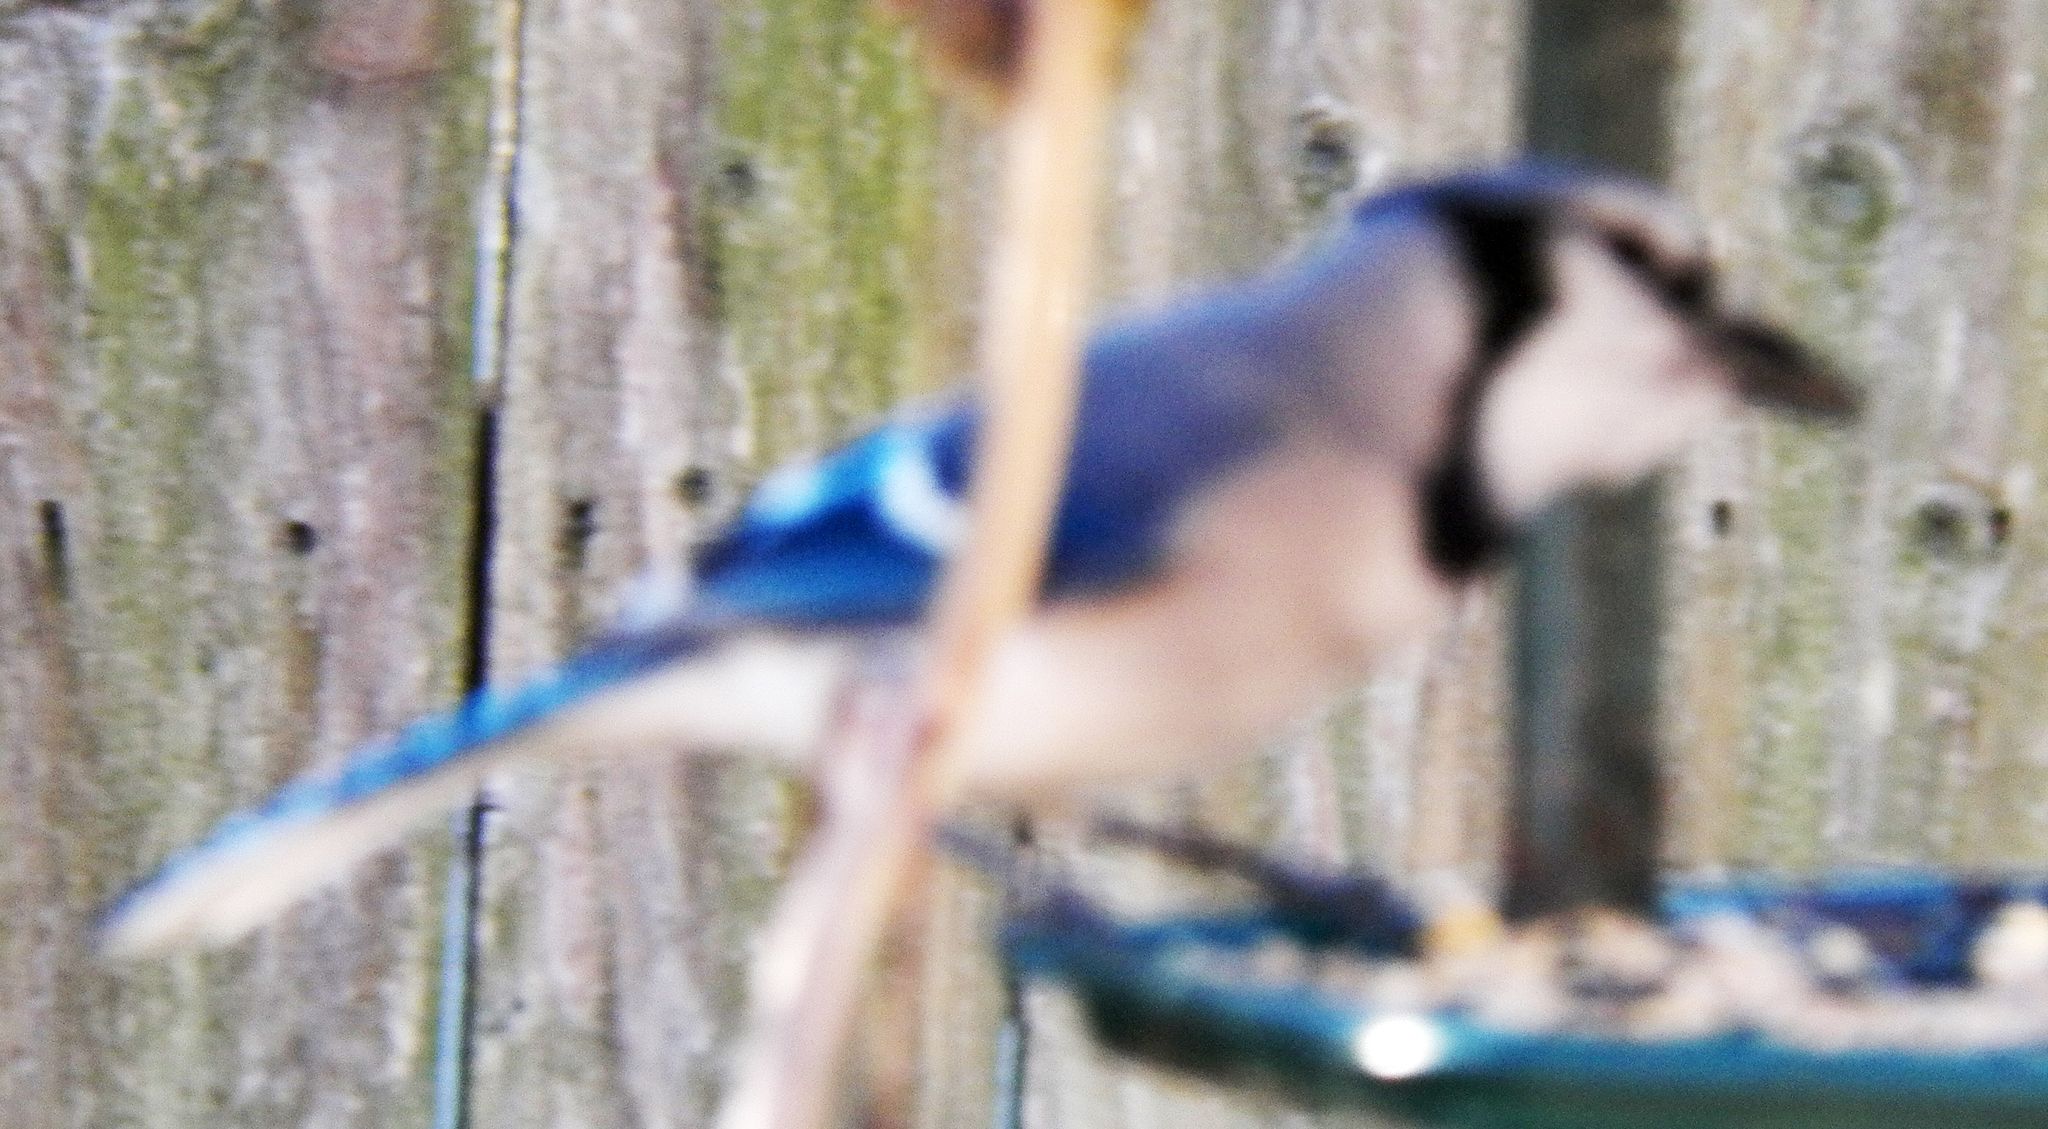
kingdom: Animalia
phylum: Chordata
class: Aves
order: Passeriformes
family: Corvidae
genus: Cyanocitta
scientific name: Cyanocitta cristata
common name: Blue jay
